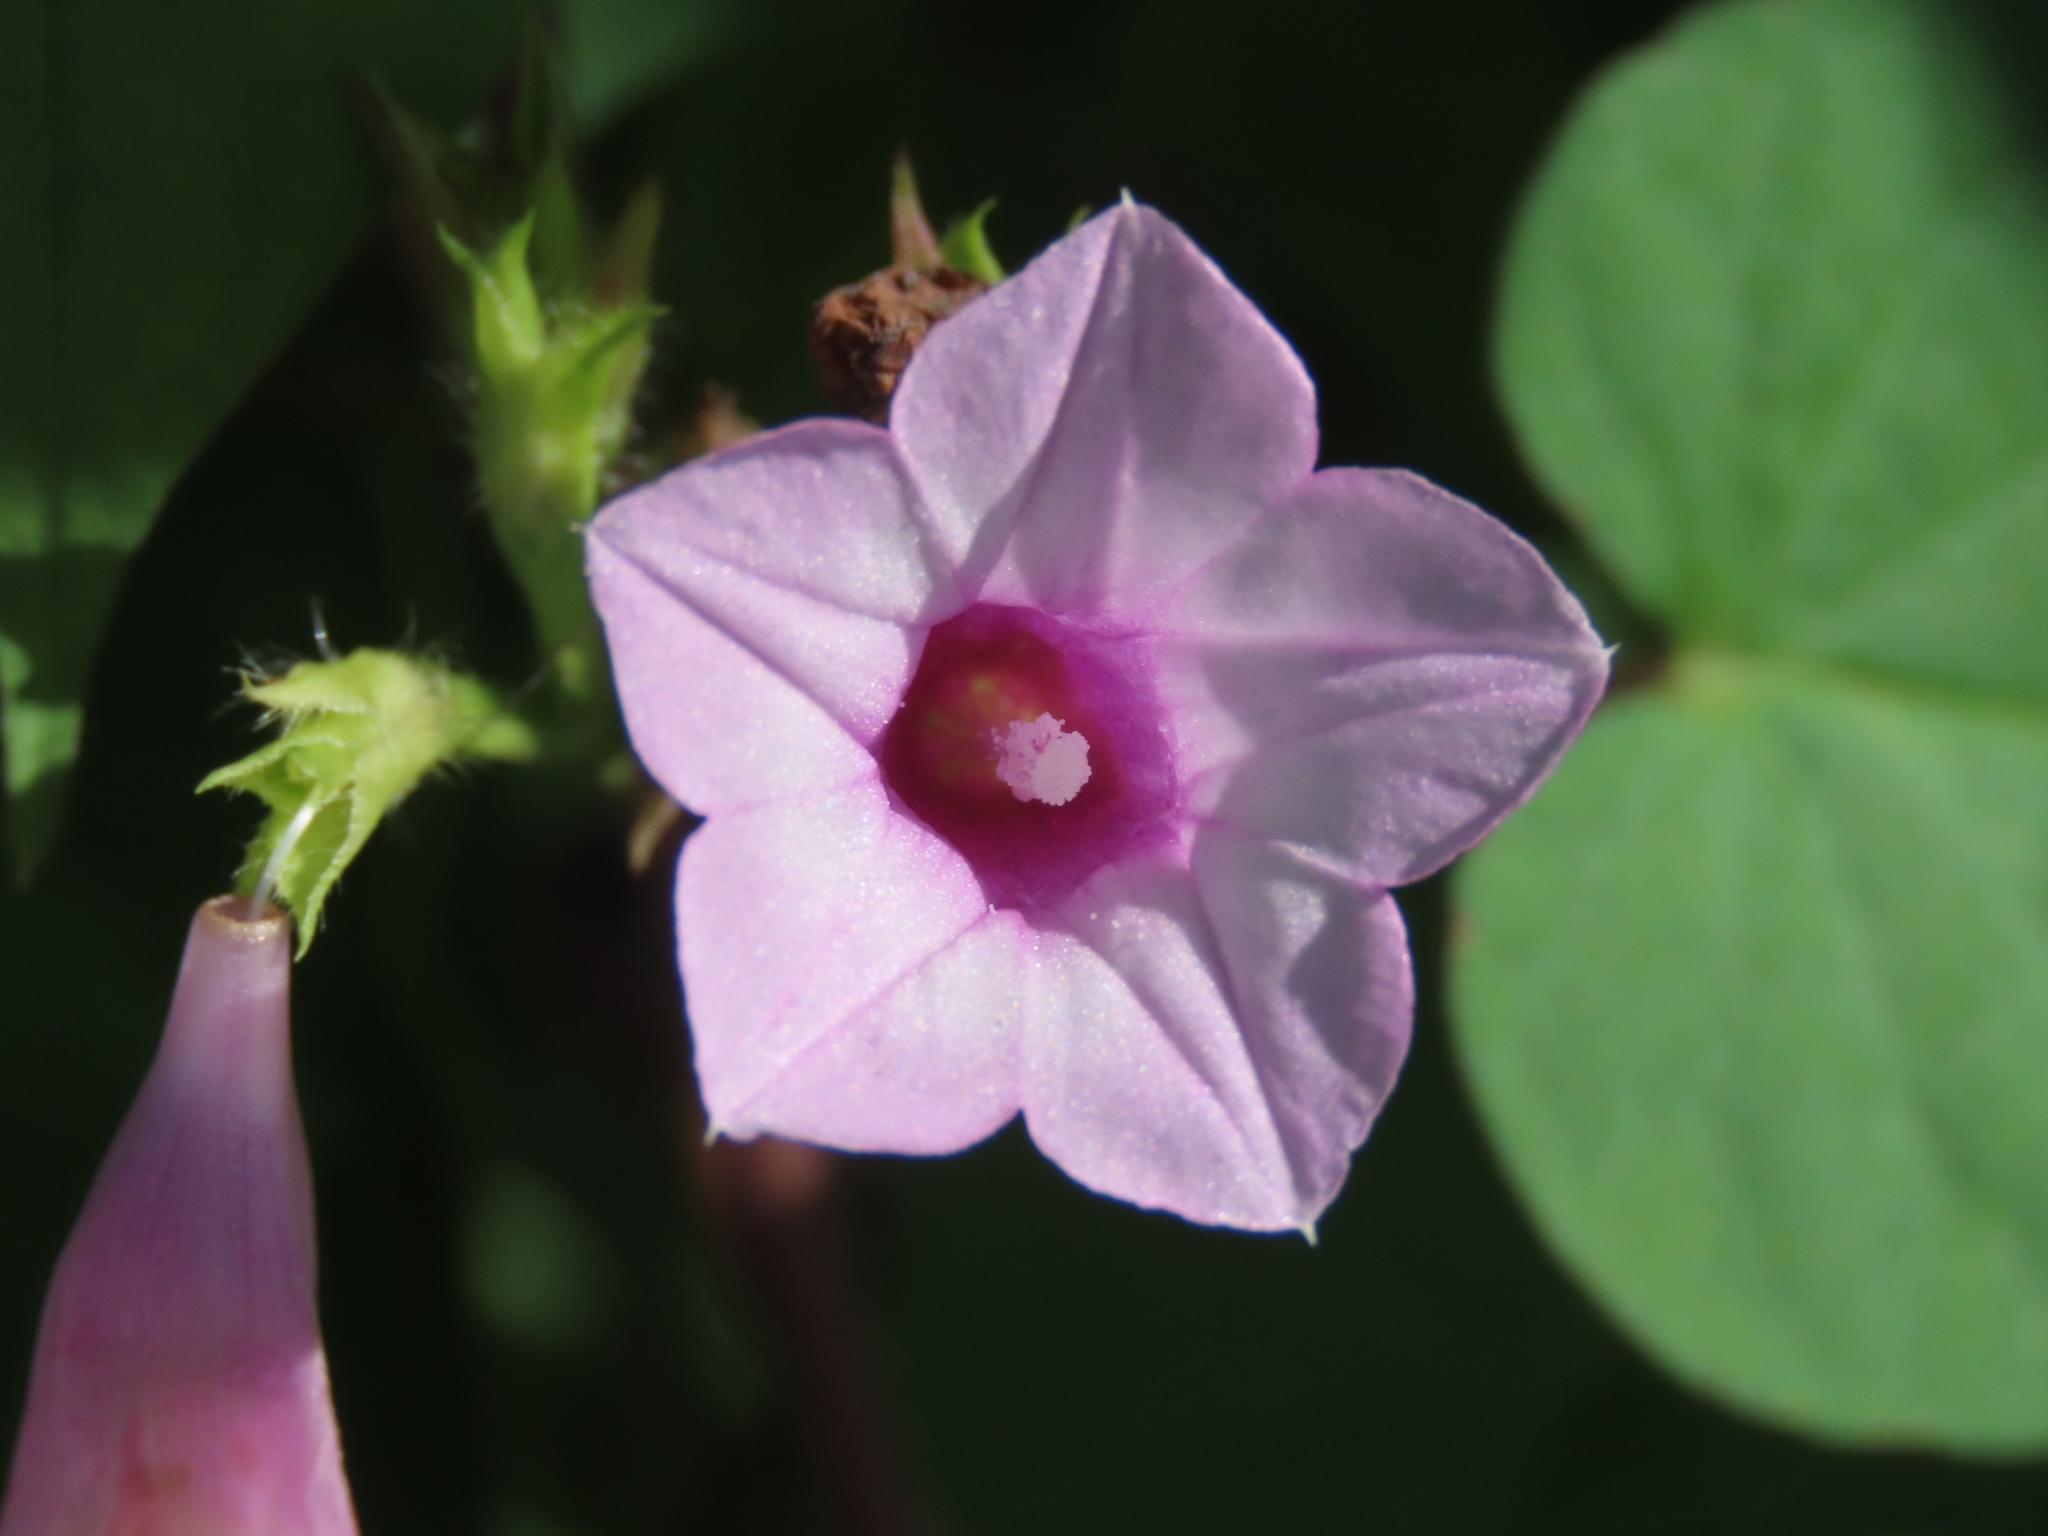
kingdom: Plantae
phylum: Tracheophyta
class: Magnoliopsida
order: Solanales
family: Convolvulaceae
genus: Ipomoea
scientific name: Ipomoea triloba
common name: Little-bell
